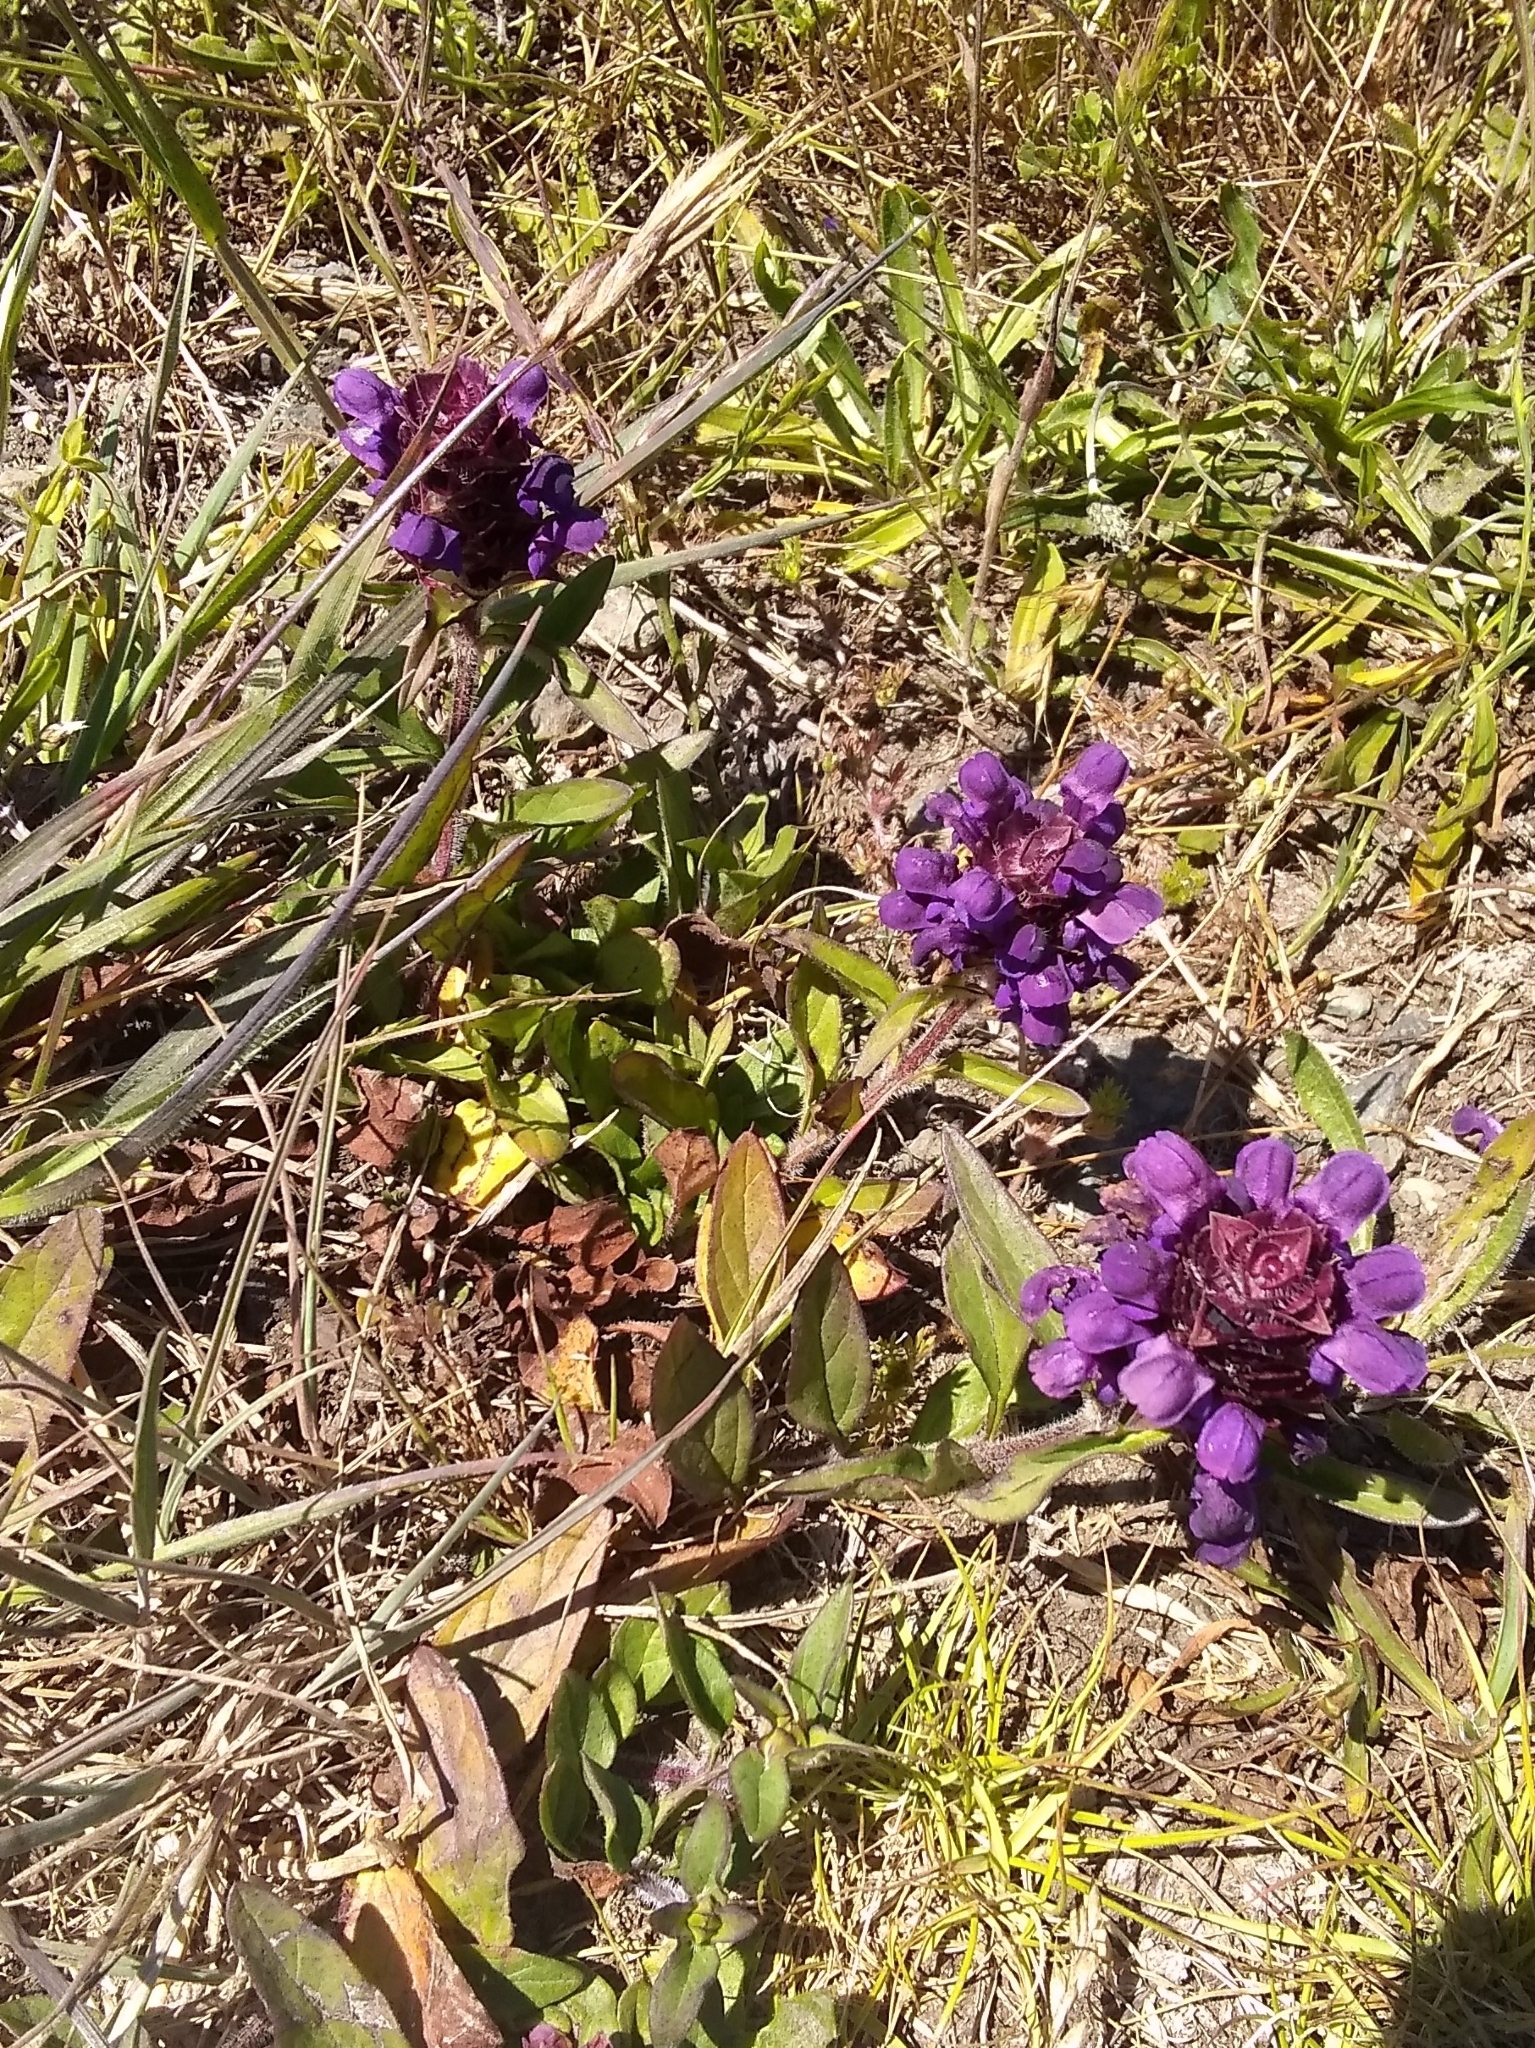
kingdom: Plantae
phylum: Tracheophyta
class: Magnoliopsida
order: Lamiales
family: Lamiaceae
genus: Prunella
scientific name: Prunella vulgaris
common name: Heal-all
